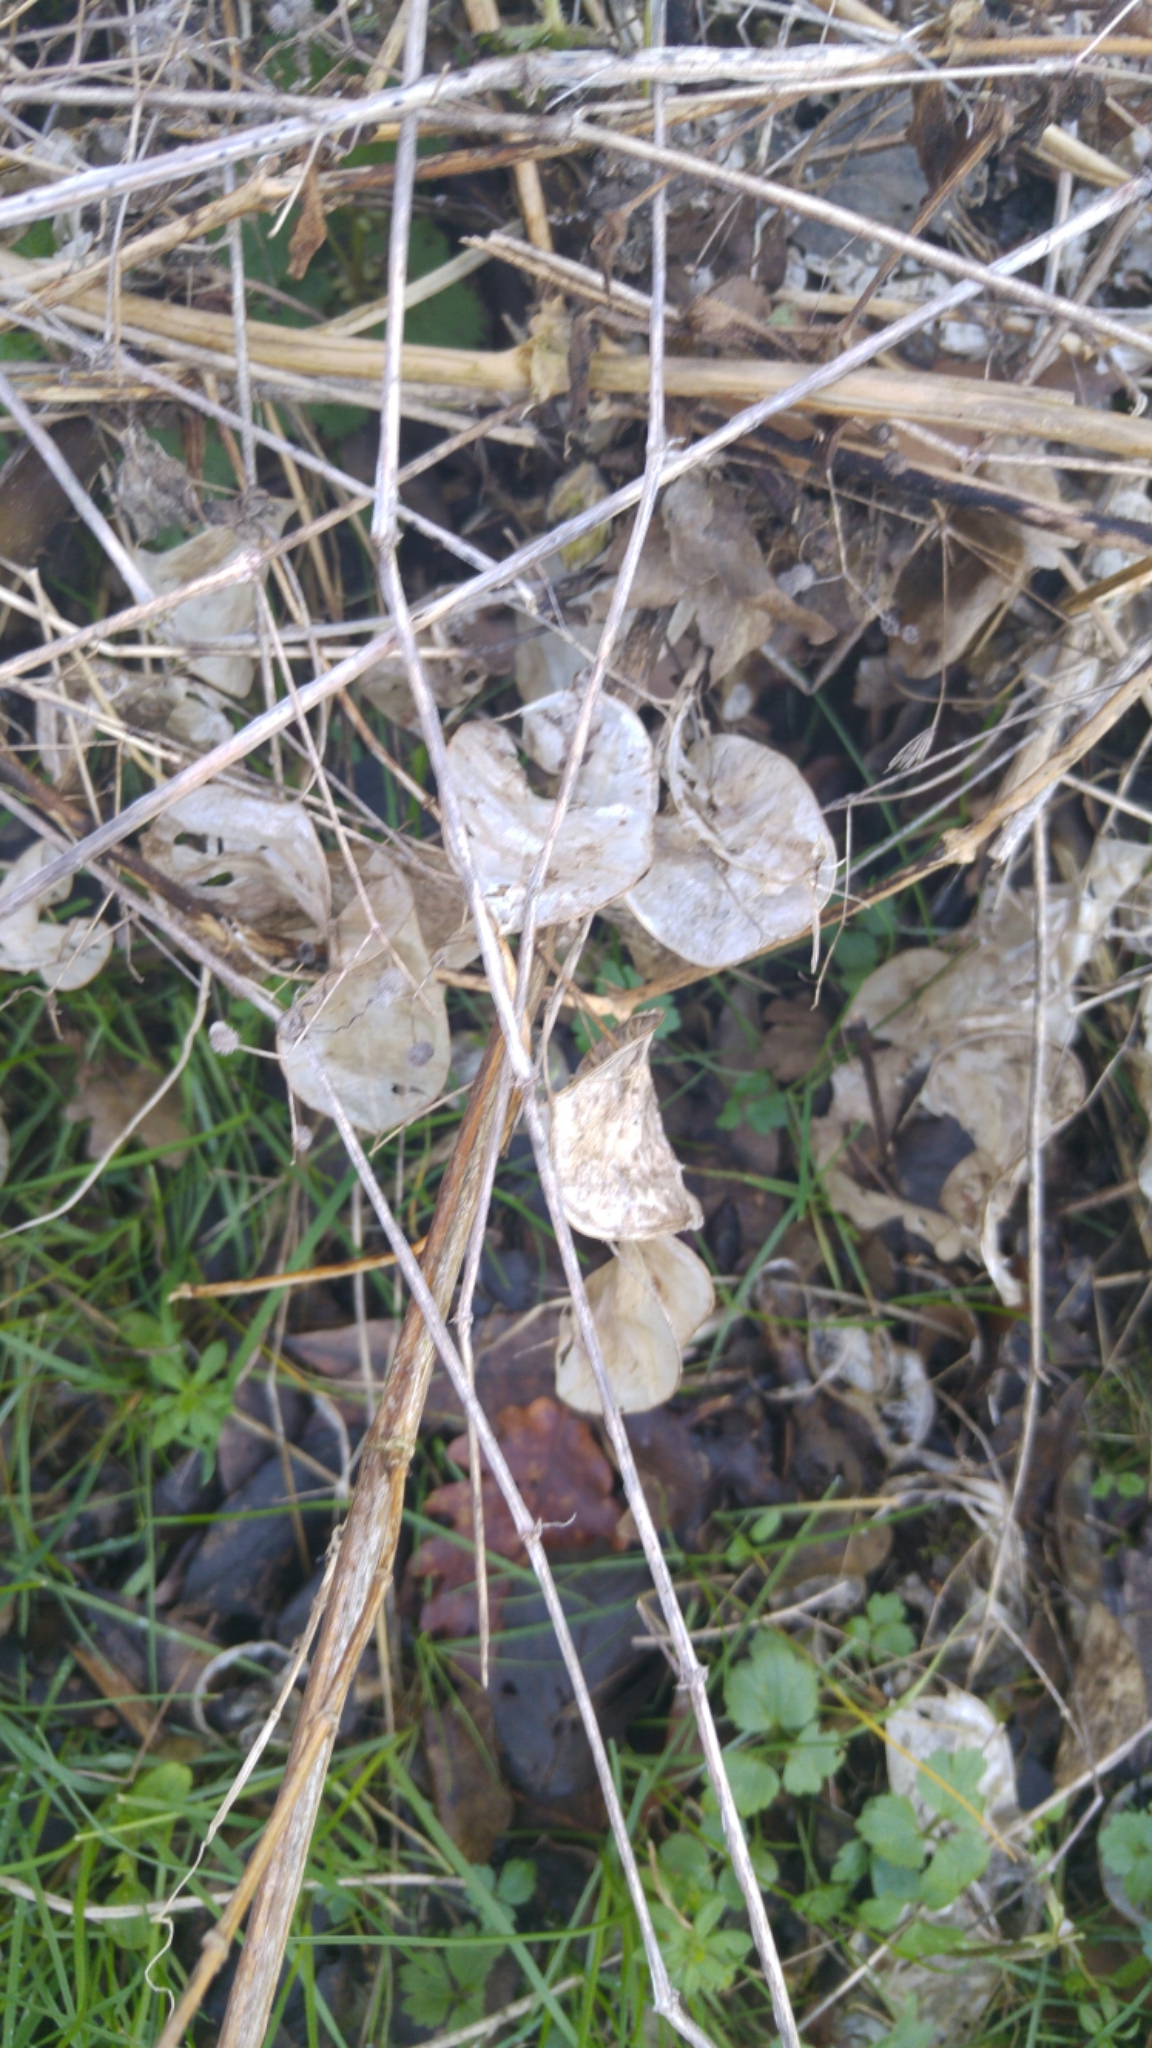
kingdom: Plantae
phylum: Tracheophyta
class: Magnoliopsida
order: Brassicales
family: Brassicaceae
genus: Lunaria
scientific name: Lunaria annua
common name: Honesty
